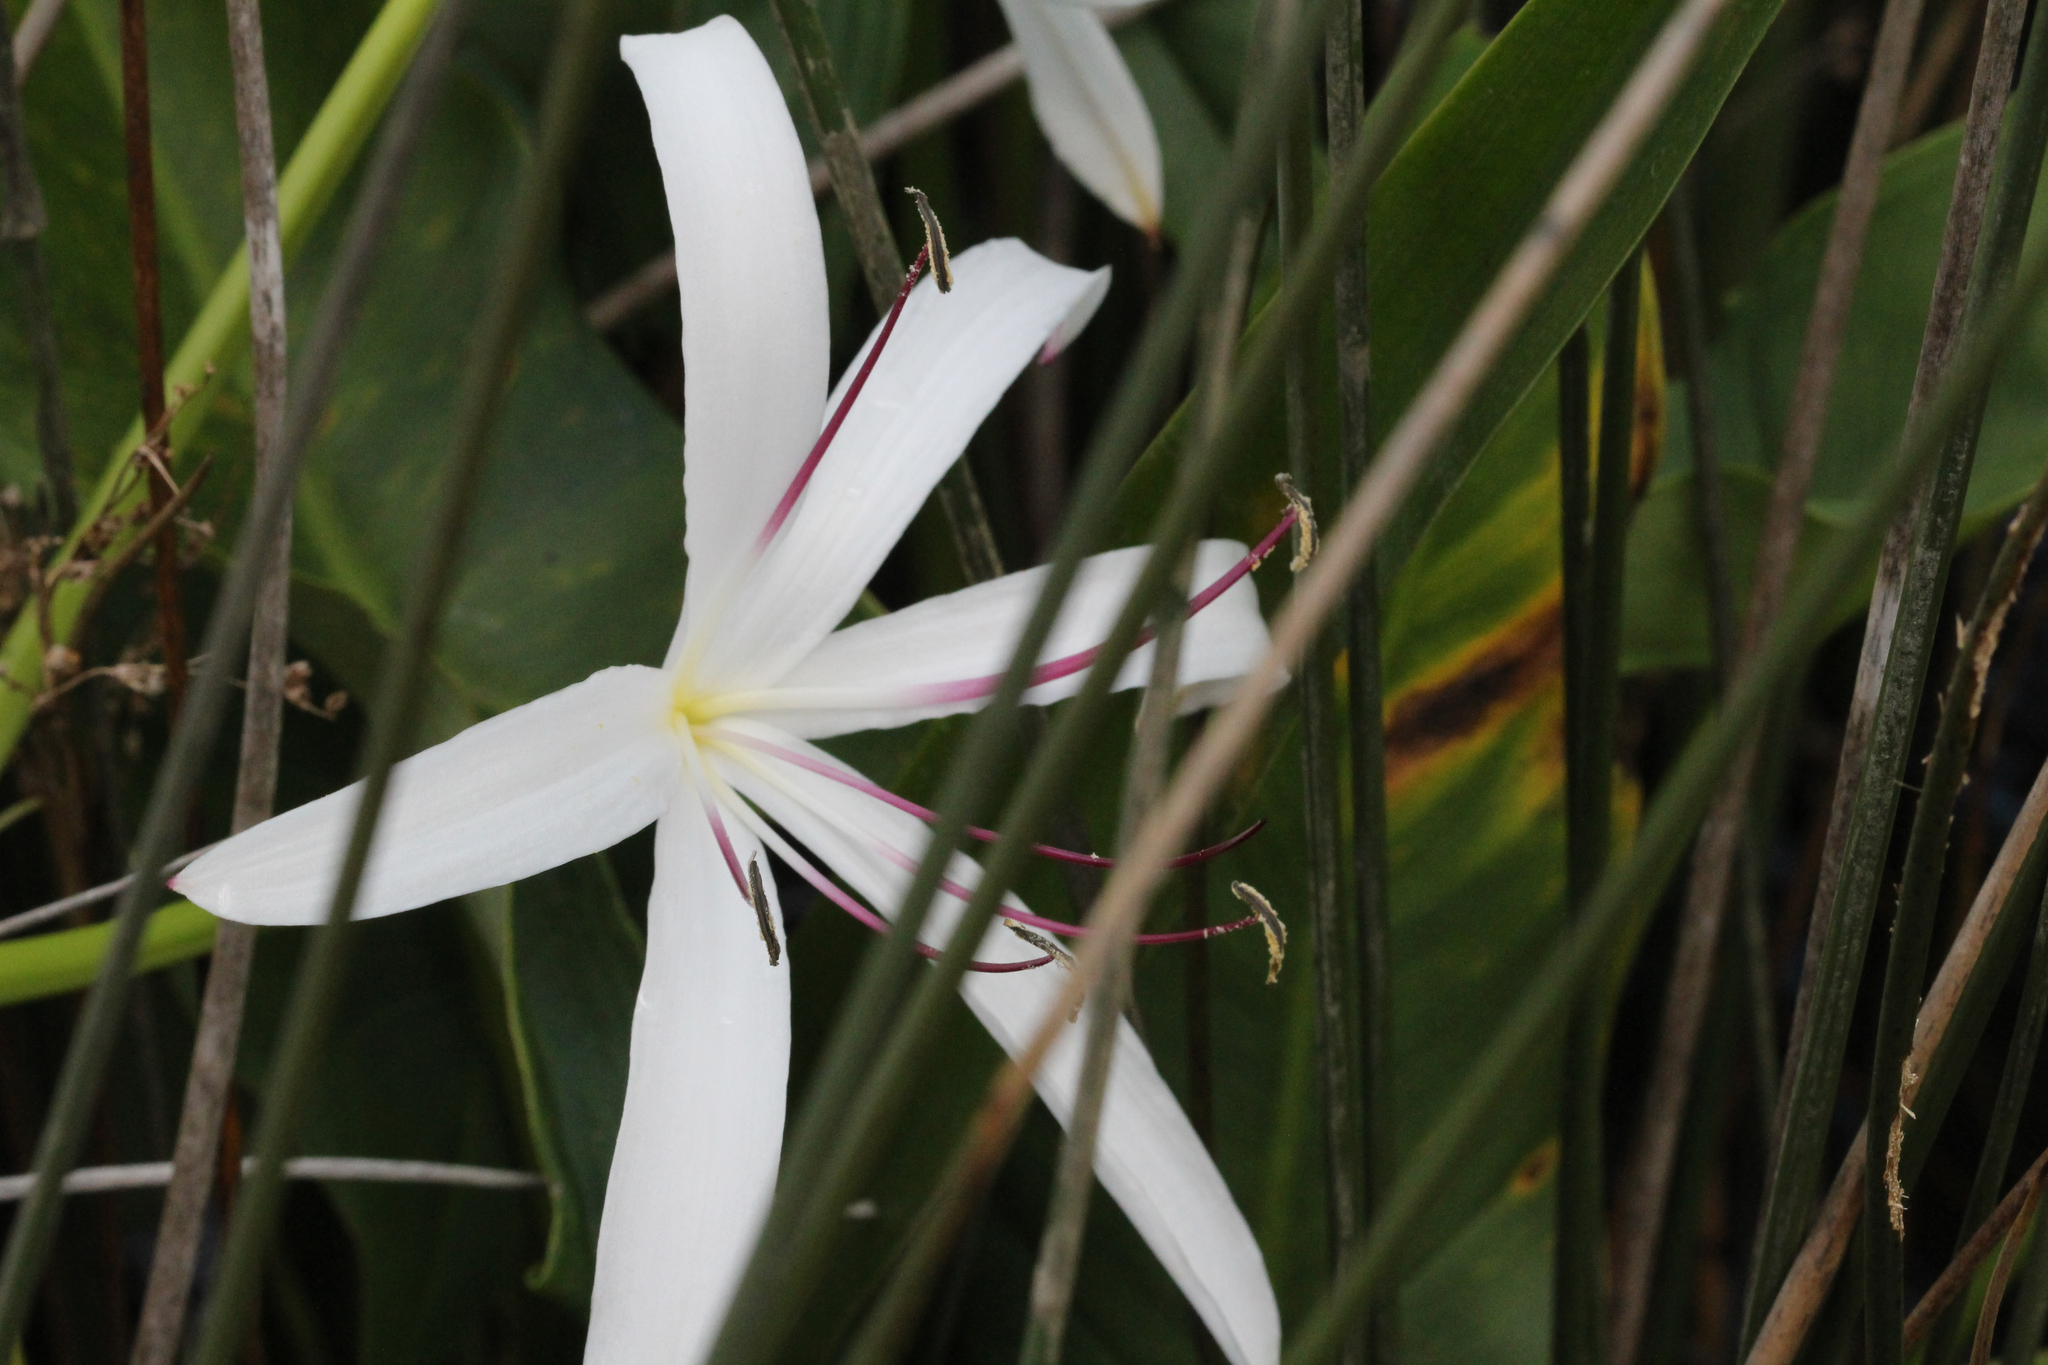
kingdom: Plantae
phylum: Tracheophyta
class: Liliopsida
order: Asparagales
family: Amaryllidaceae
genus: Crinum
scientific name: Crinum americanum
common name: Florida swamp-lily
